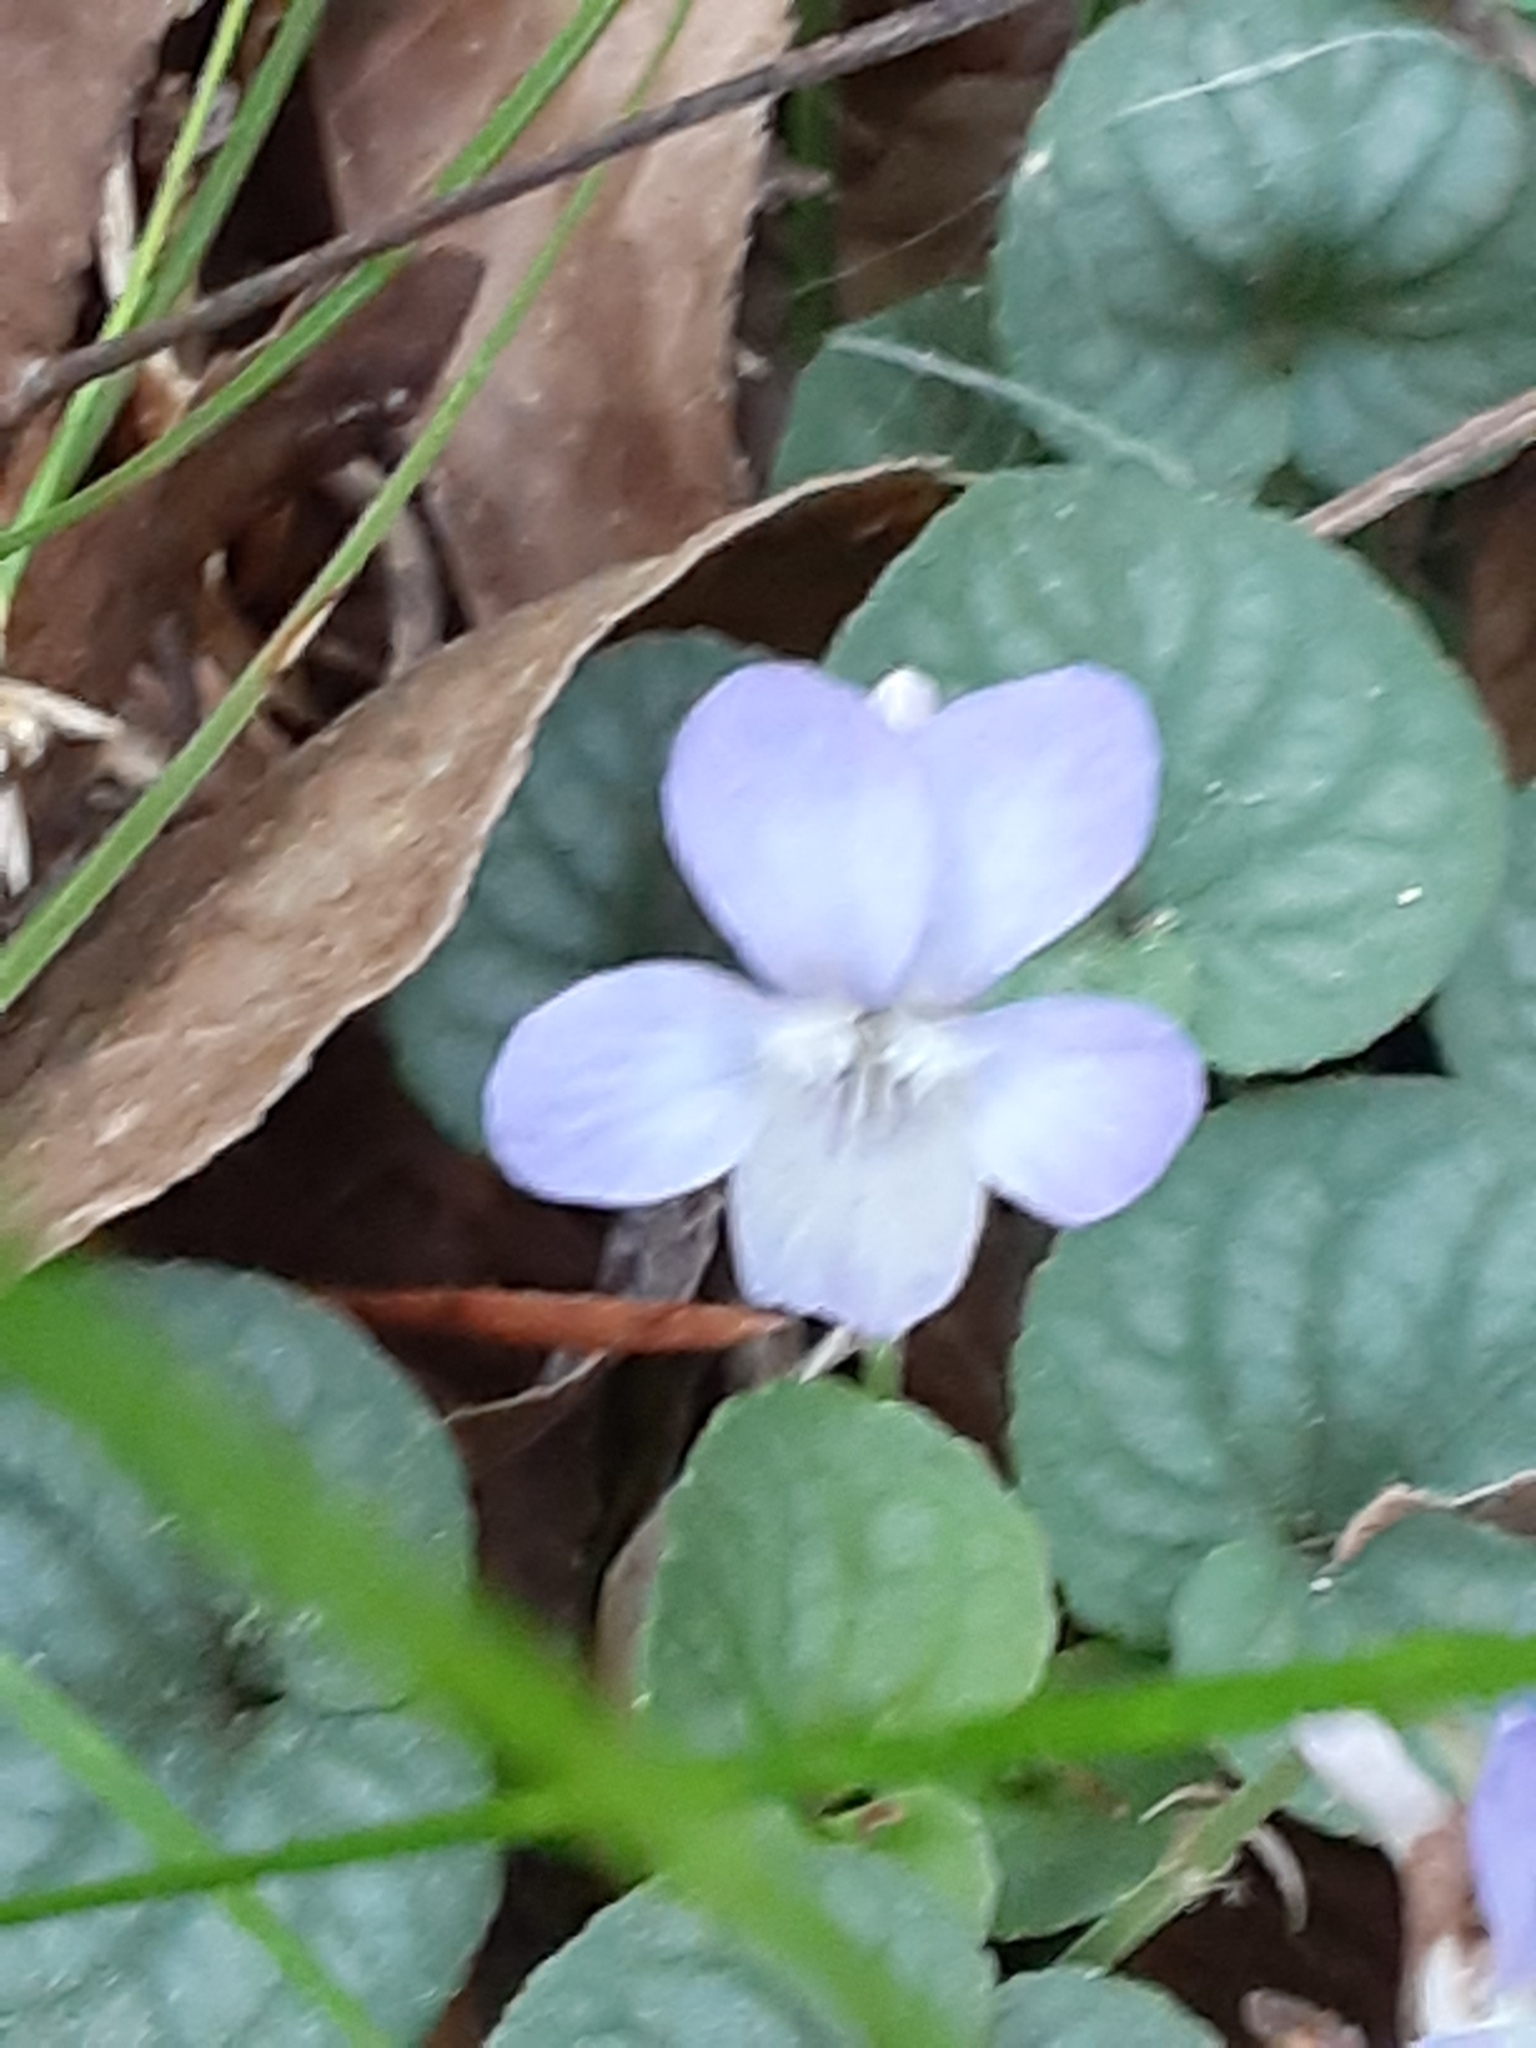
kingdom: Plantae
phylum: Tracheophyta
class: Magnoliopsida
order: Malpighiales
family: Violaceae
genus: Viola
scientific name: Viola walteri
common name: Prostrate southern violet
